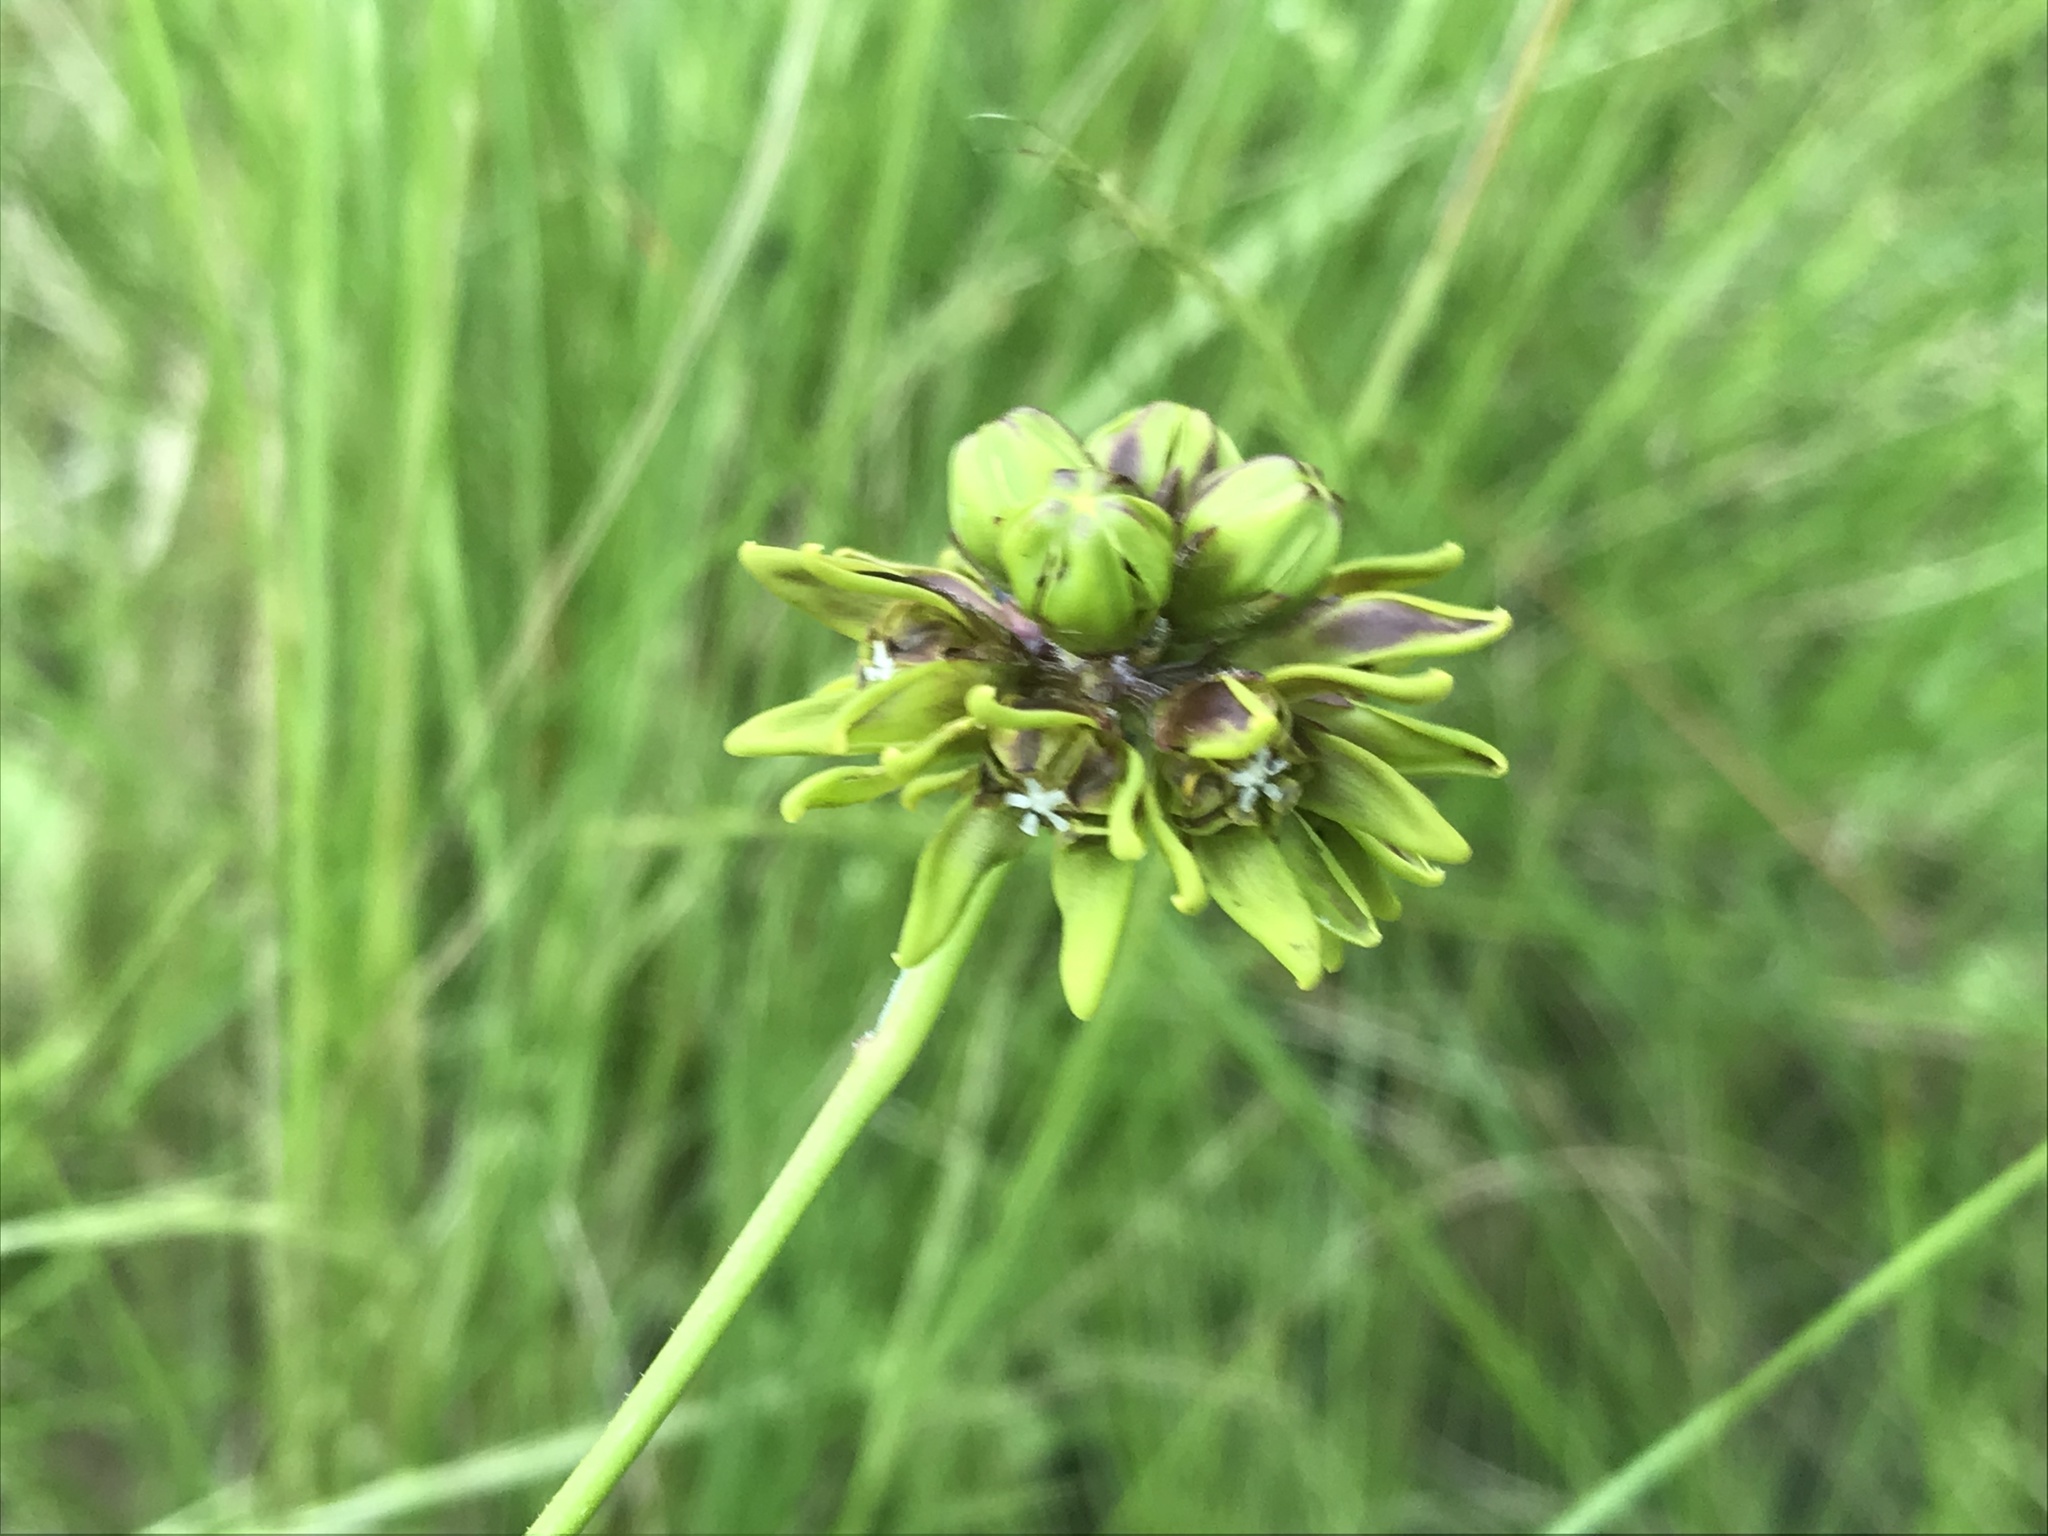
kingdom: Plantae
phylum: Tracheophyta
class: Magnoliopsida
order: Gentianales
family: Apocynaceae
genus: Periglossum
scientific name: Periglossum angustifolium
